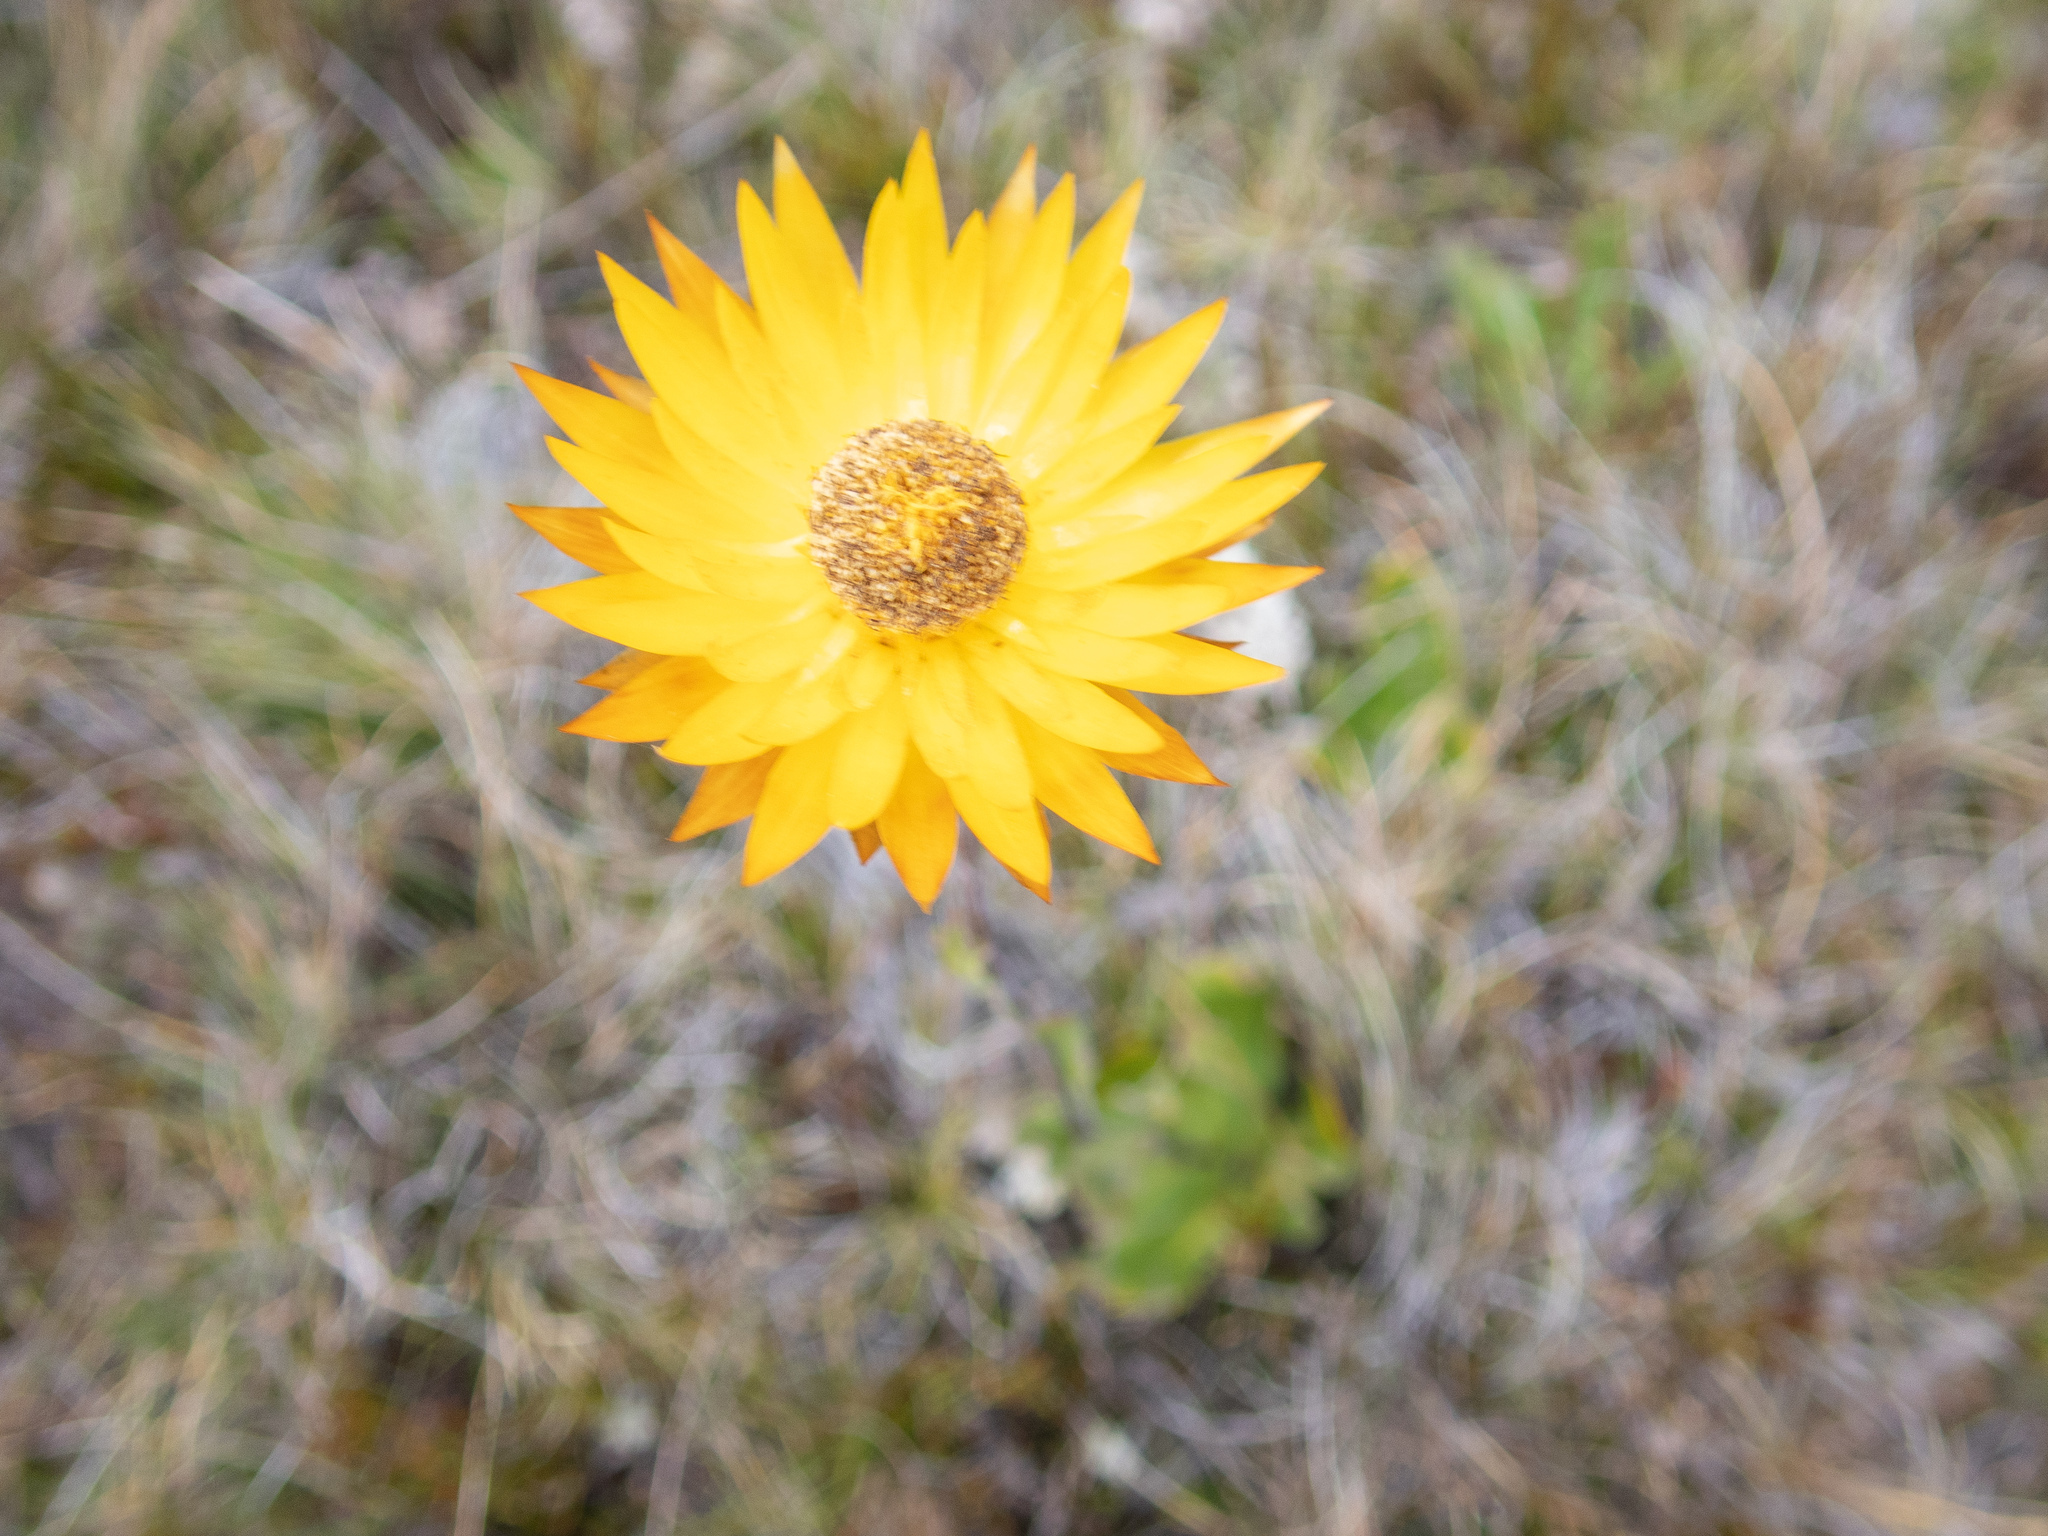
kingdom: Plantae
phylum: Tracheophyta
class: Magnoliopsida
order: Asterales
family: Asteraceae
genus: Xerochrysum
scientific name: Xerochrysum subundulatum
